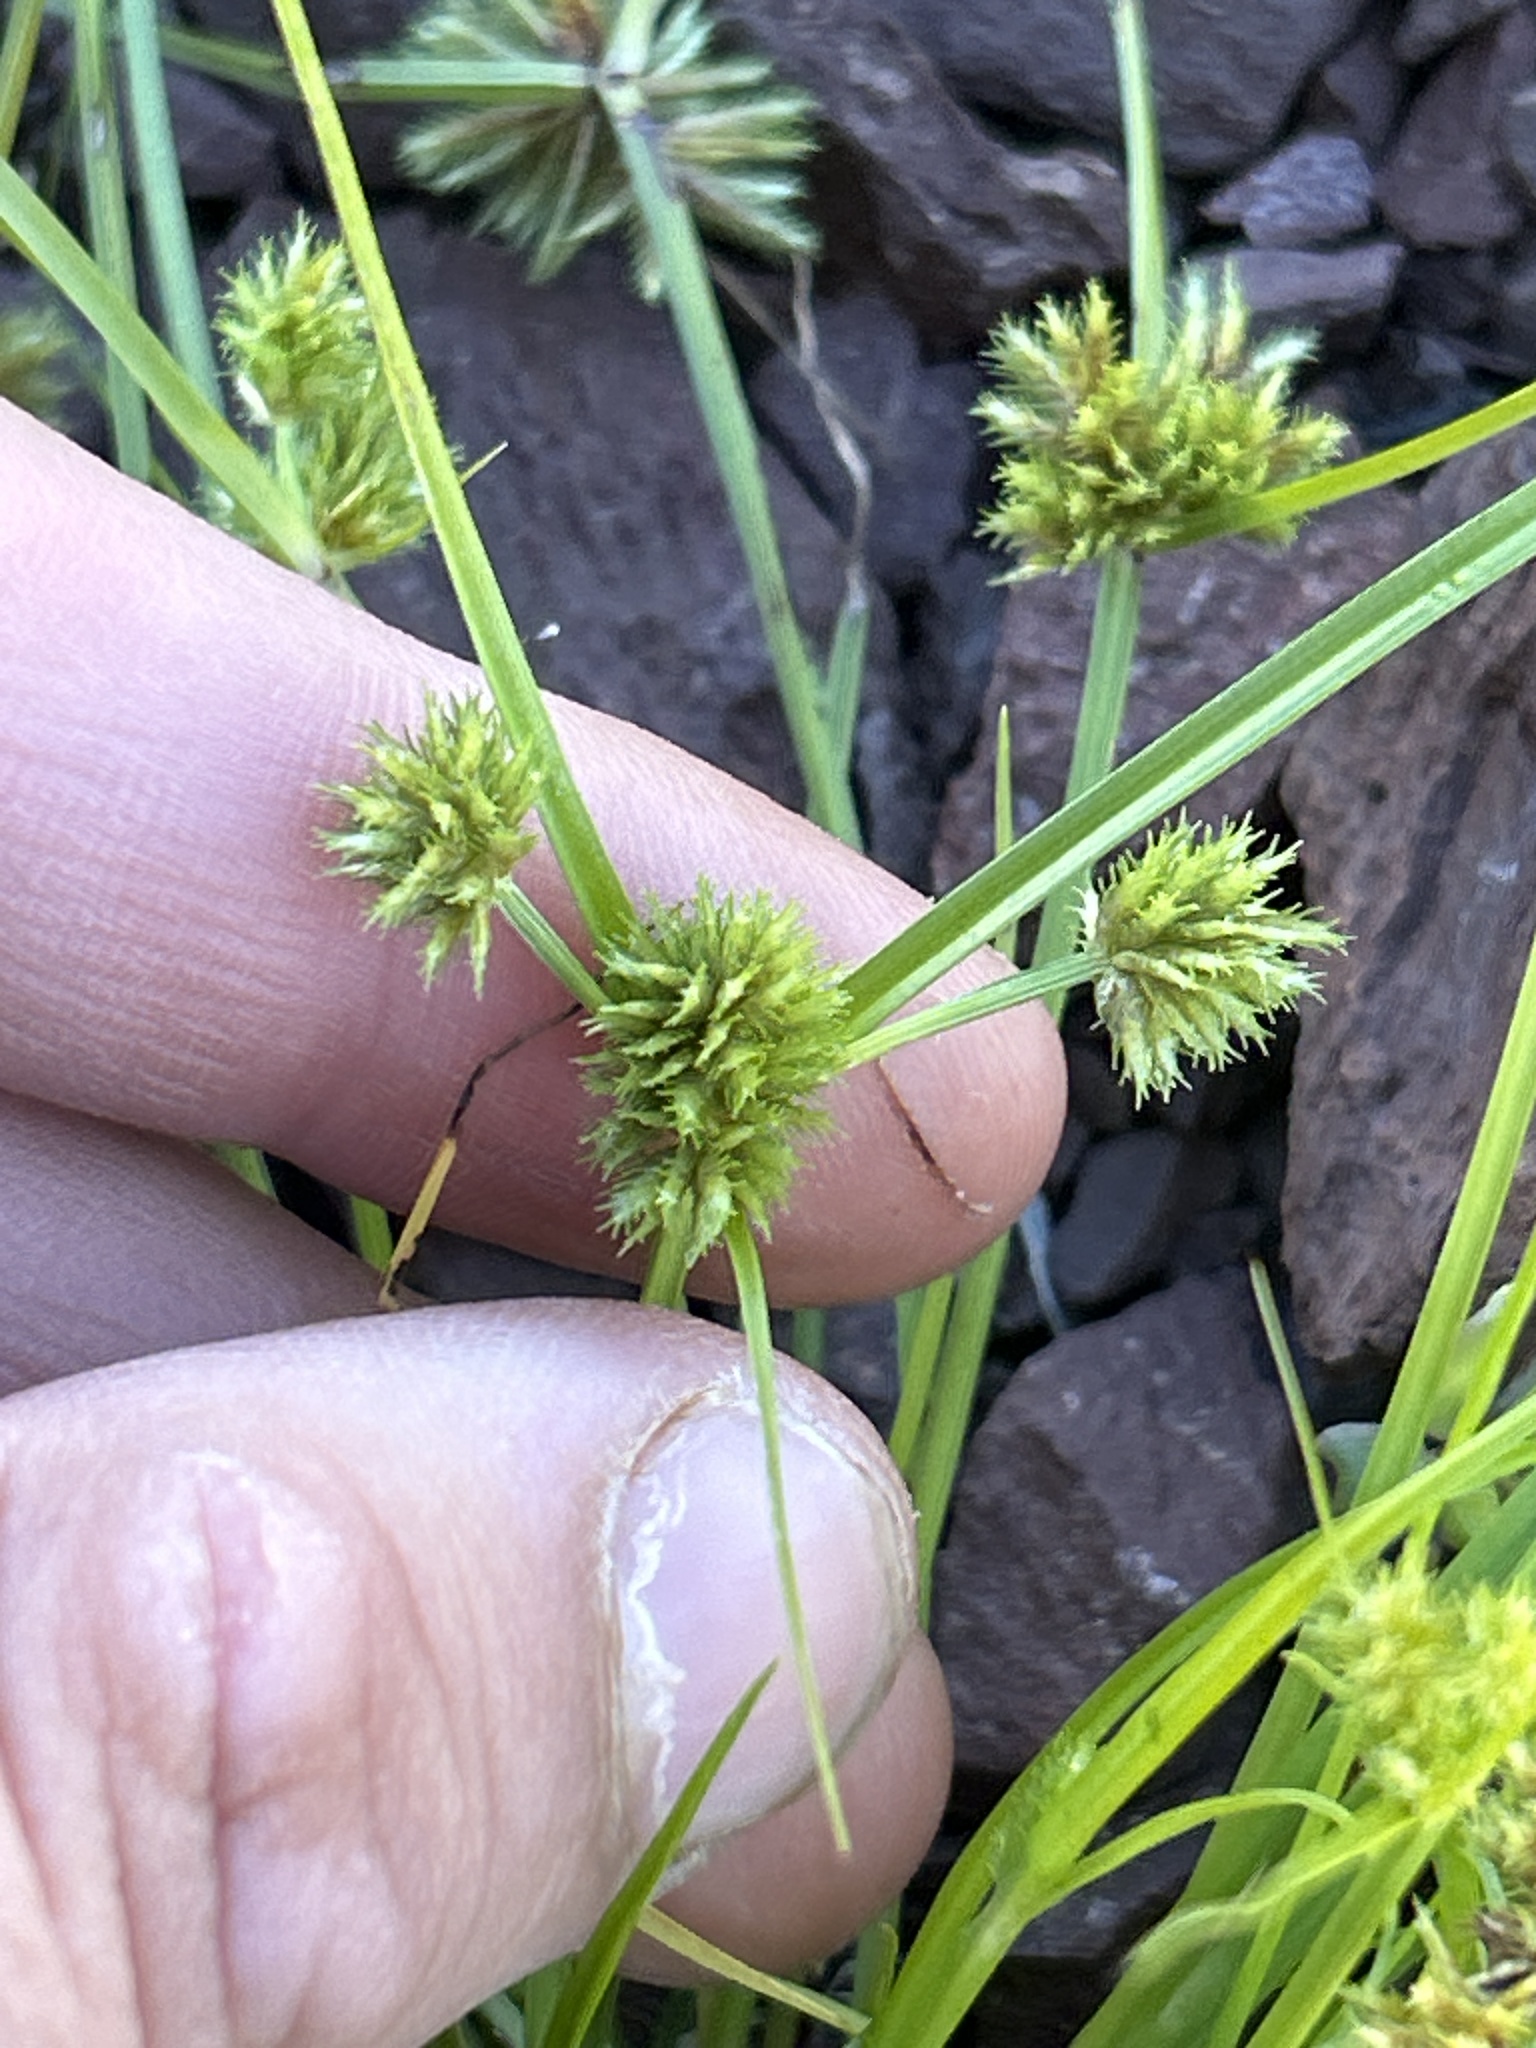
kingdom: Plantae
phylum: Tracheophyta
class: Liliopsida
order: Poales
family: Cyperaceae
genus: Cyperus
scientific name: Cyperus squarrosus
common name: Awned cyperus
